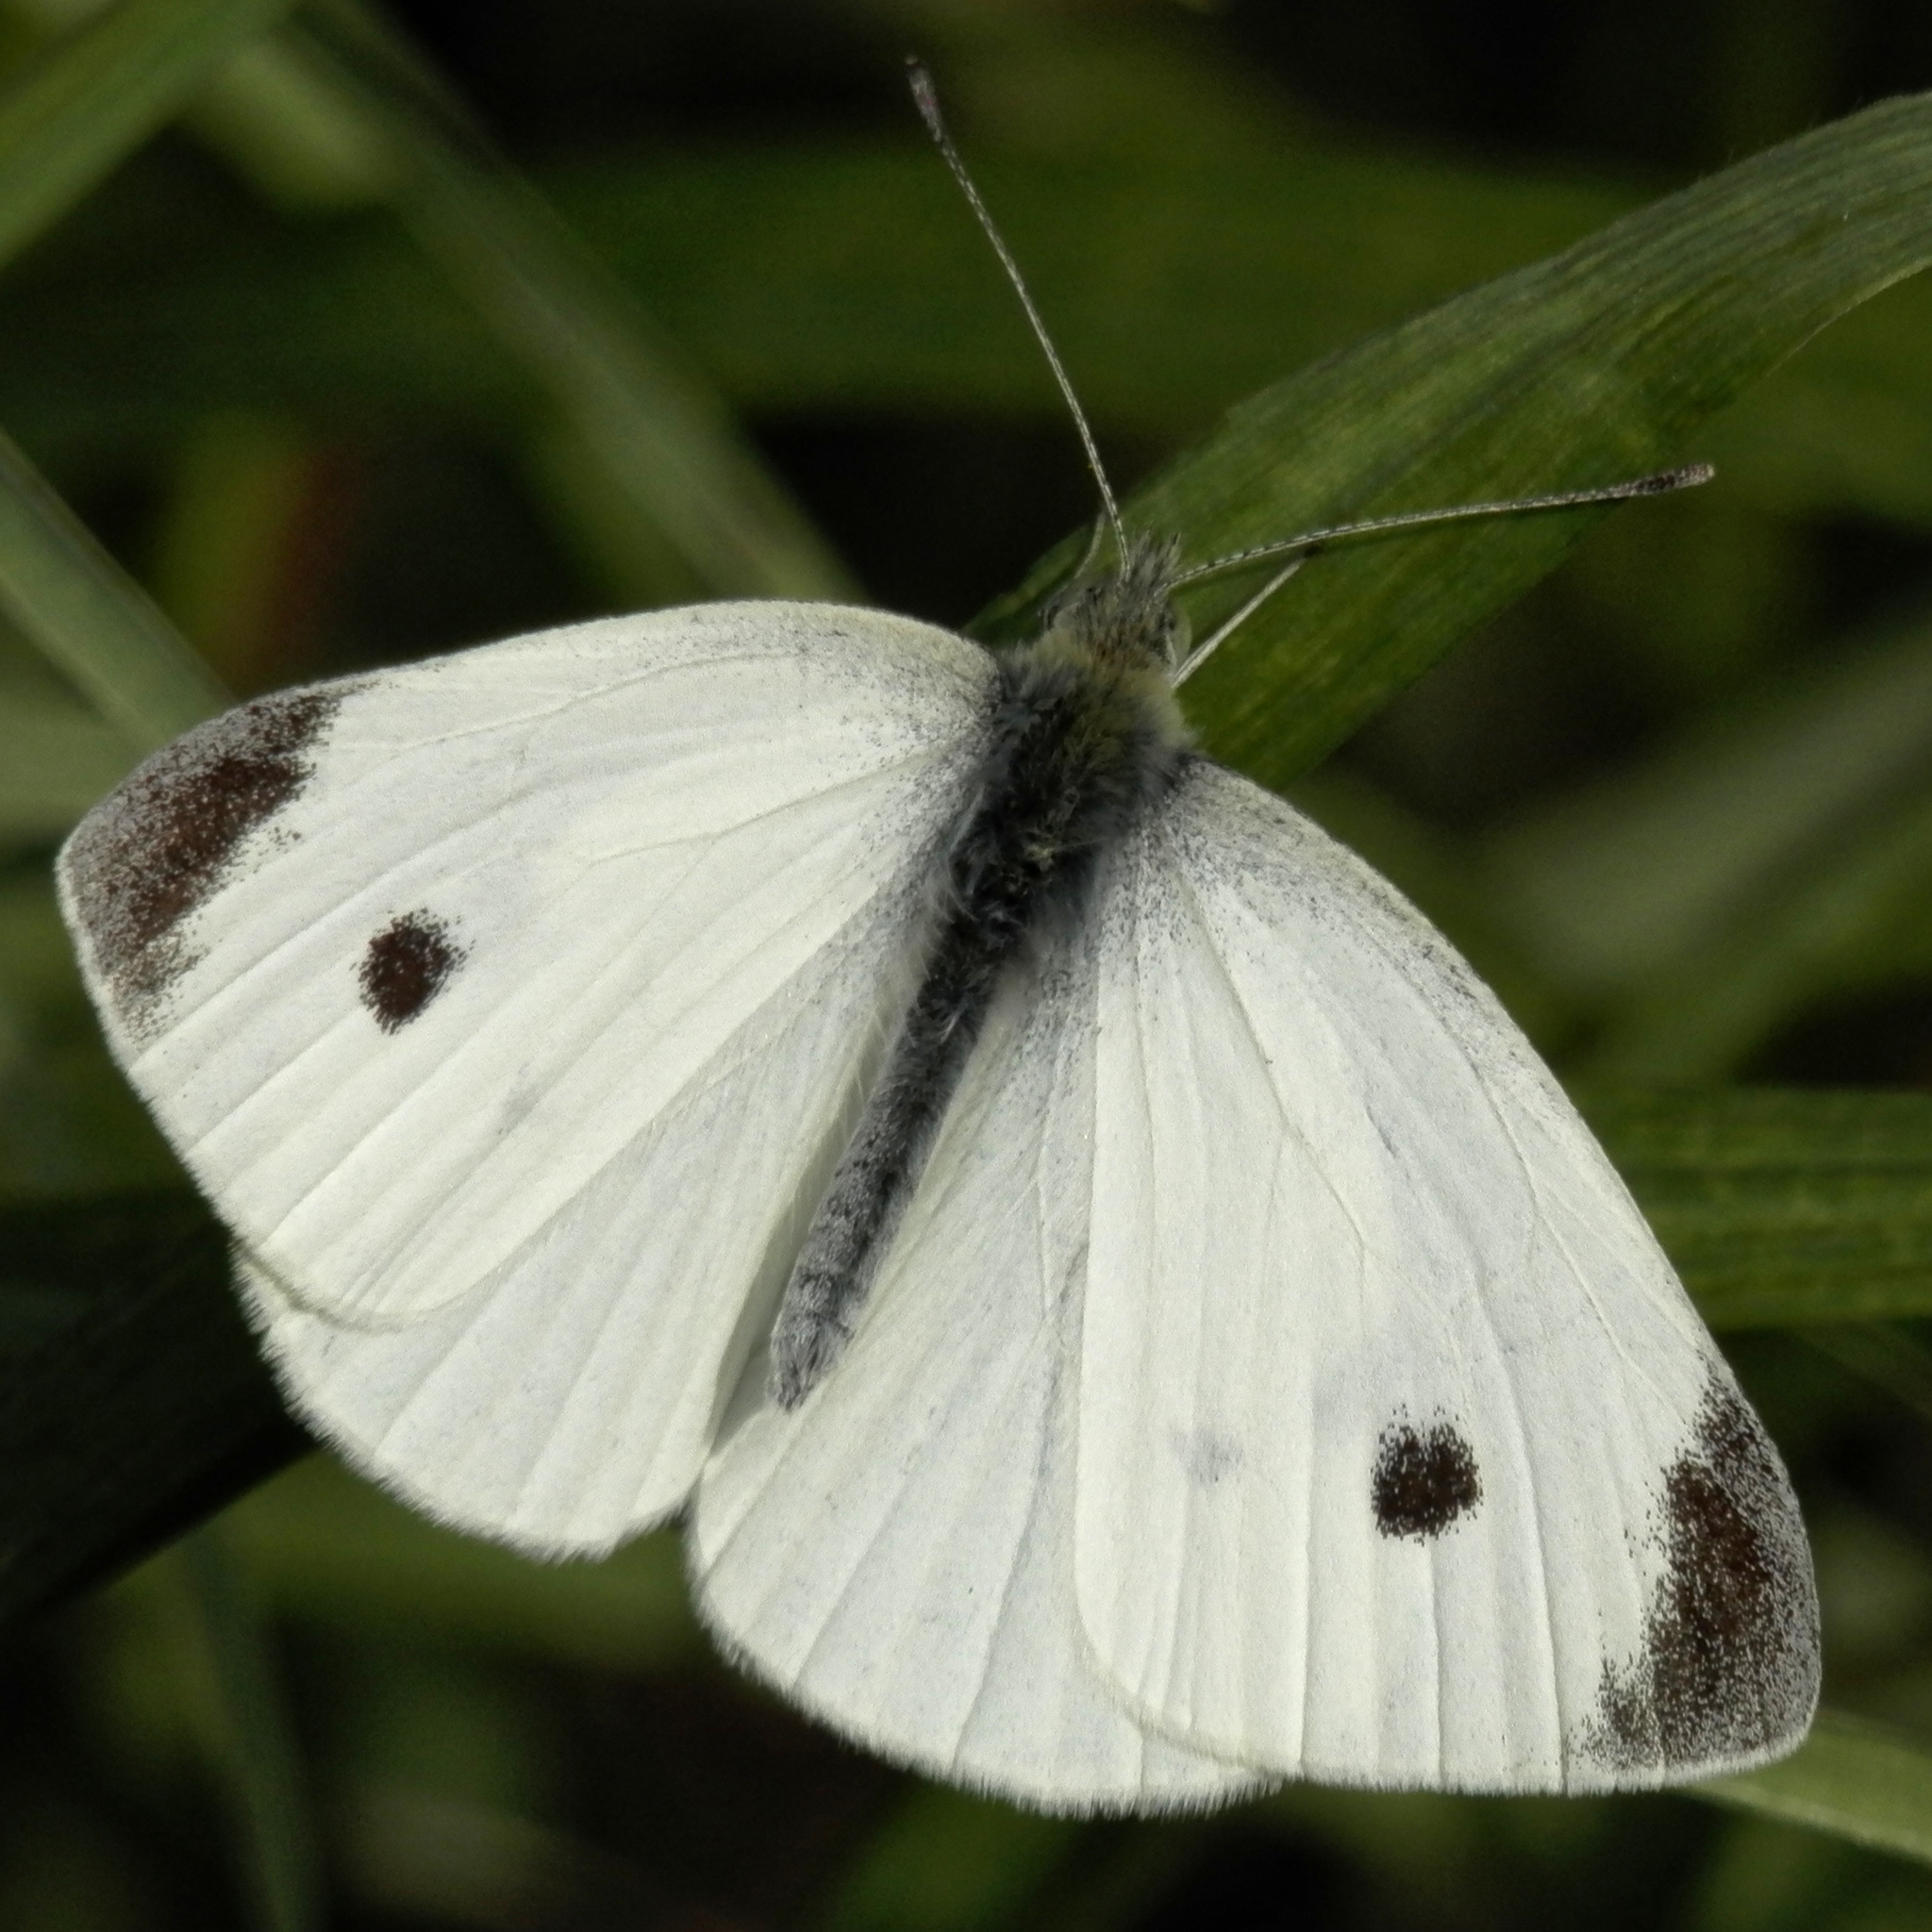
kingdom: Animalia
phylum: Arthropoda
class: Insecta
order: Lepidoptera
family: Pieridae
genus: Pieris
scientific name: Pieris rapae
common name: Small white
